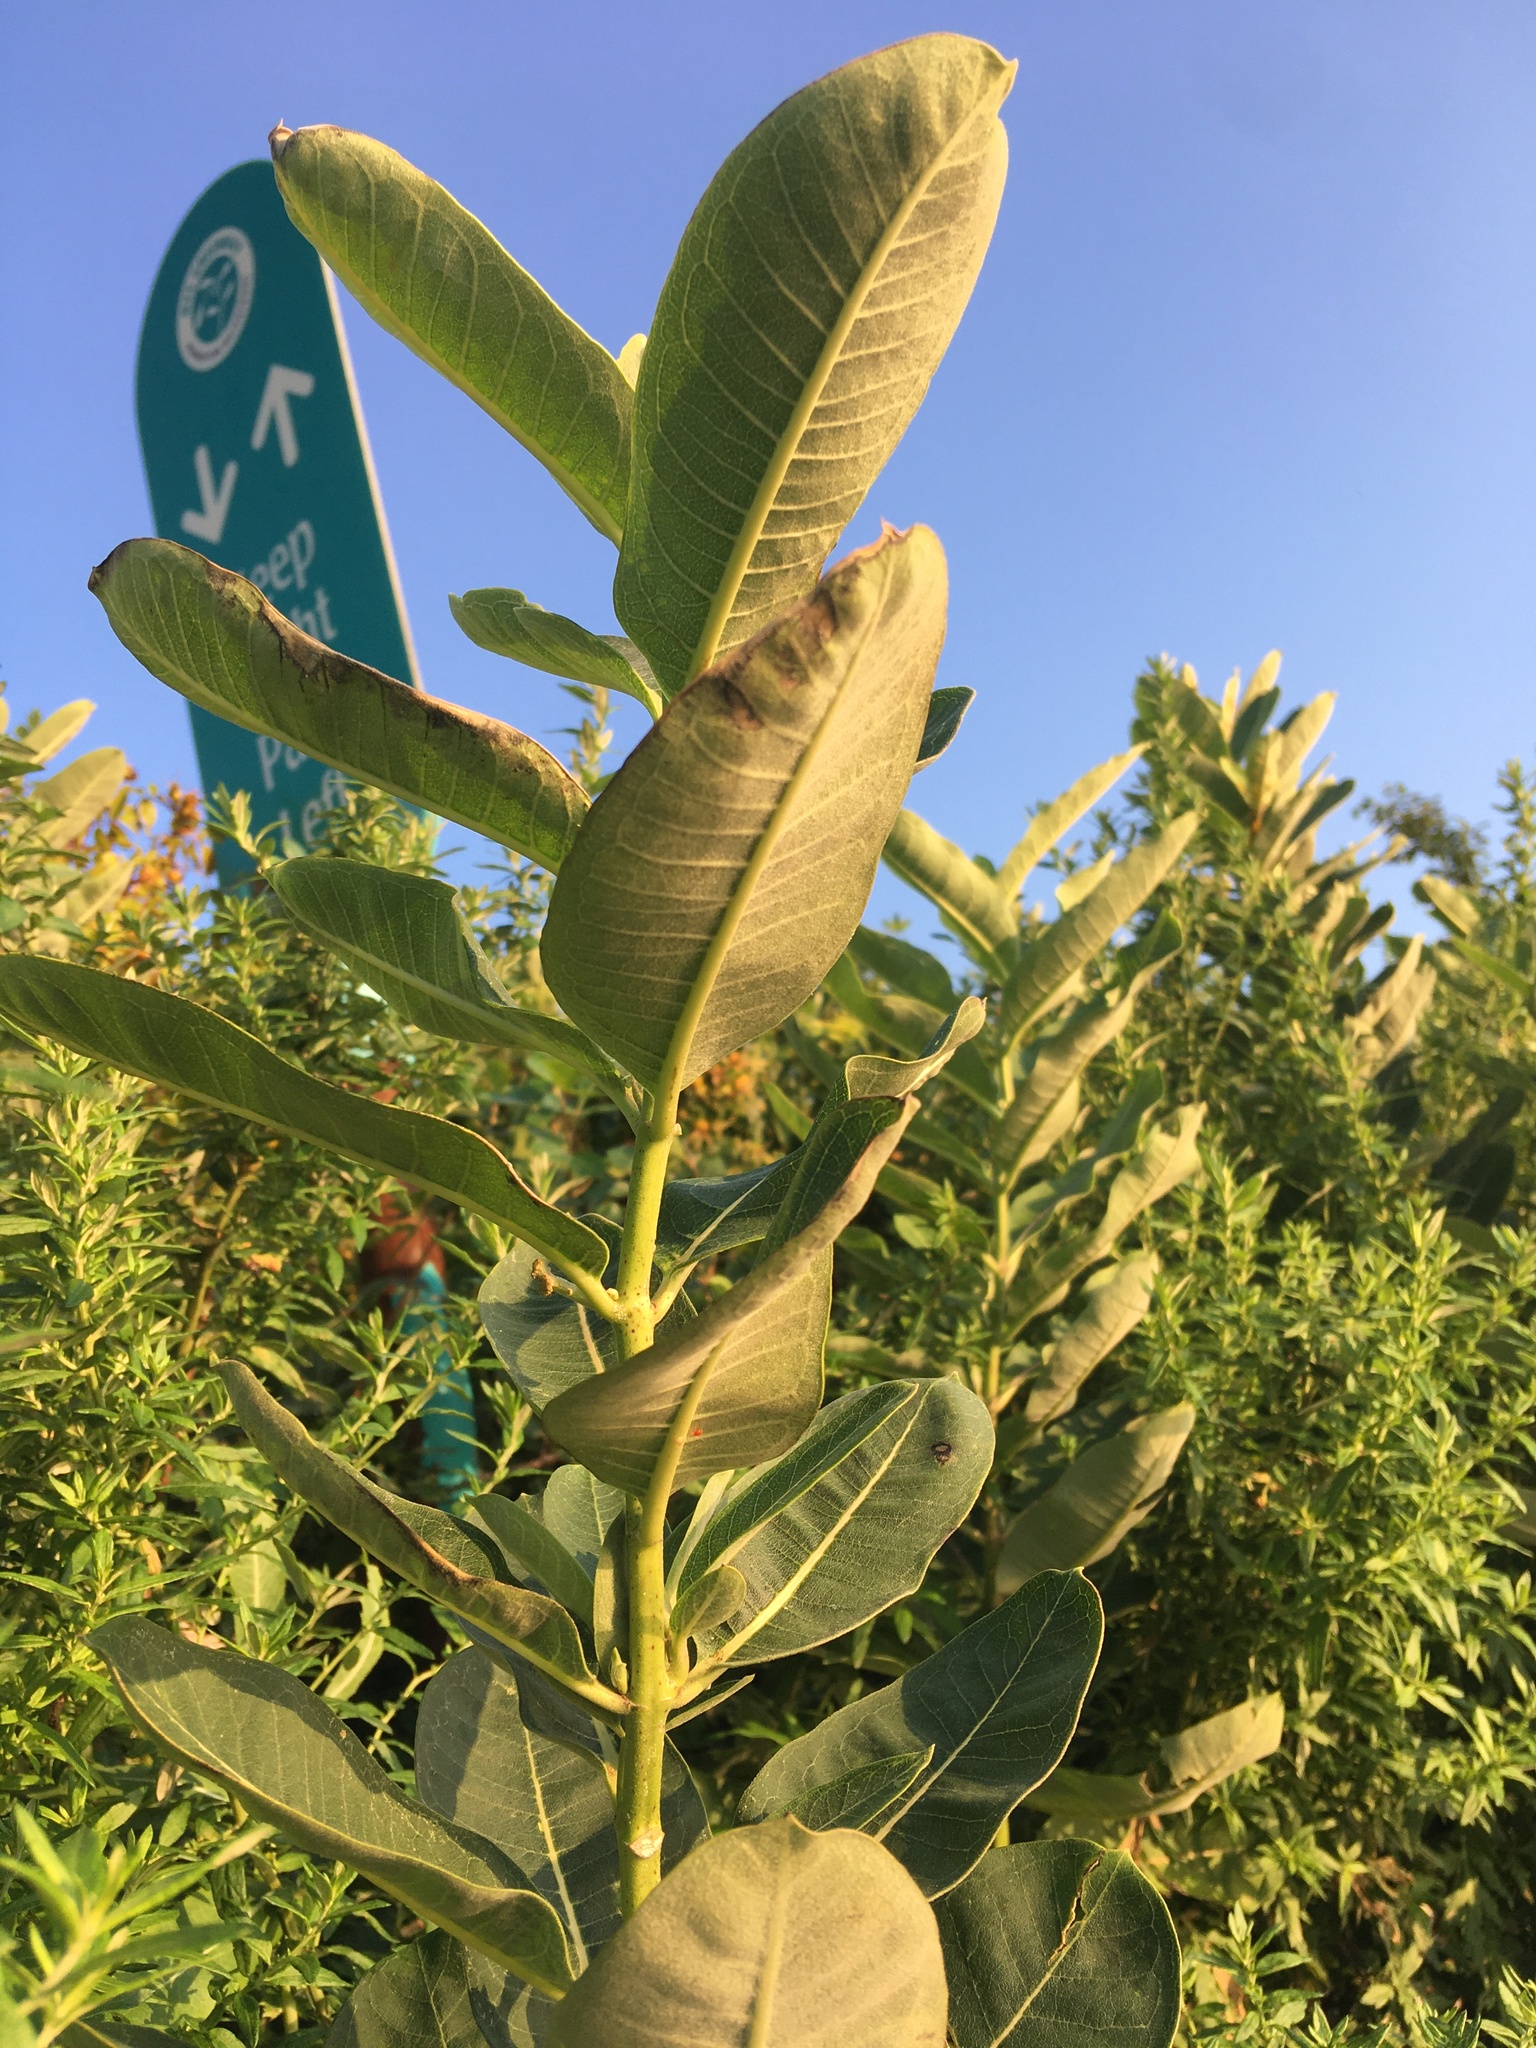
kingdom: Plantae
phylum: Tracheophyta
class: Magnoliopsida
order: Gentianales
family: Apocynaceae
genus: Asclepias
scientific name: Asclepias syriaca
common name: Common milkweed
